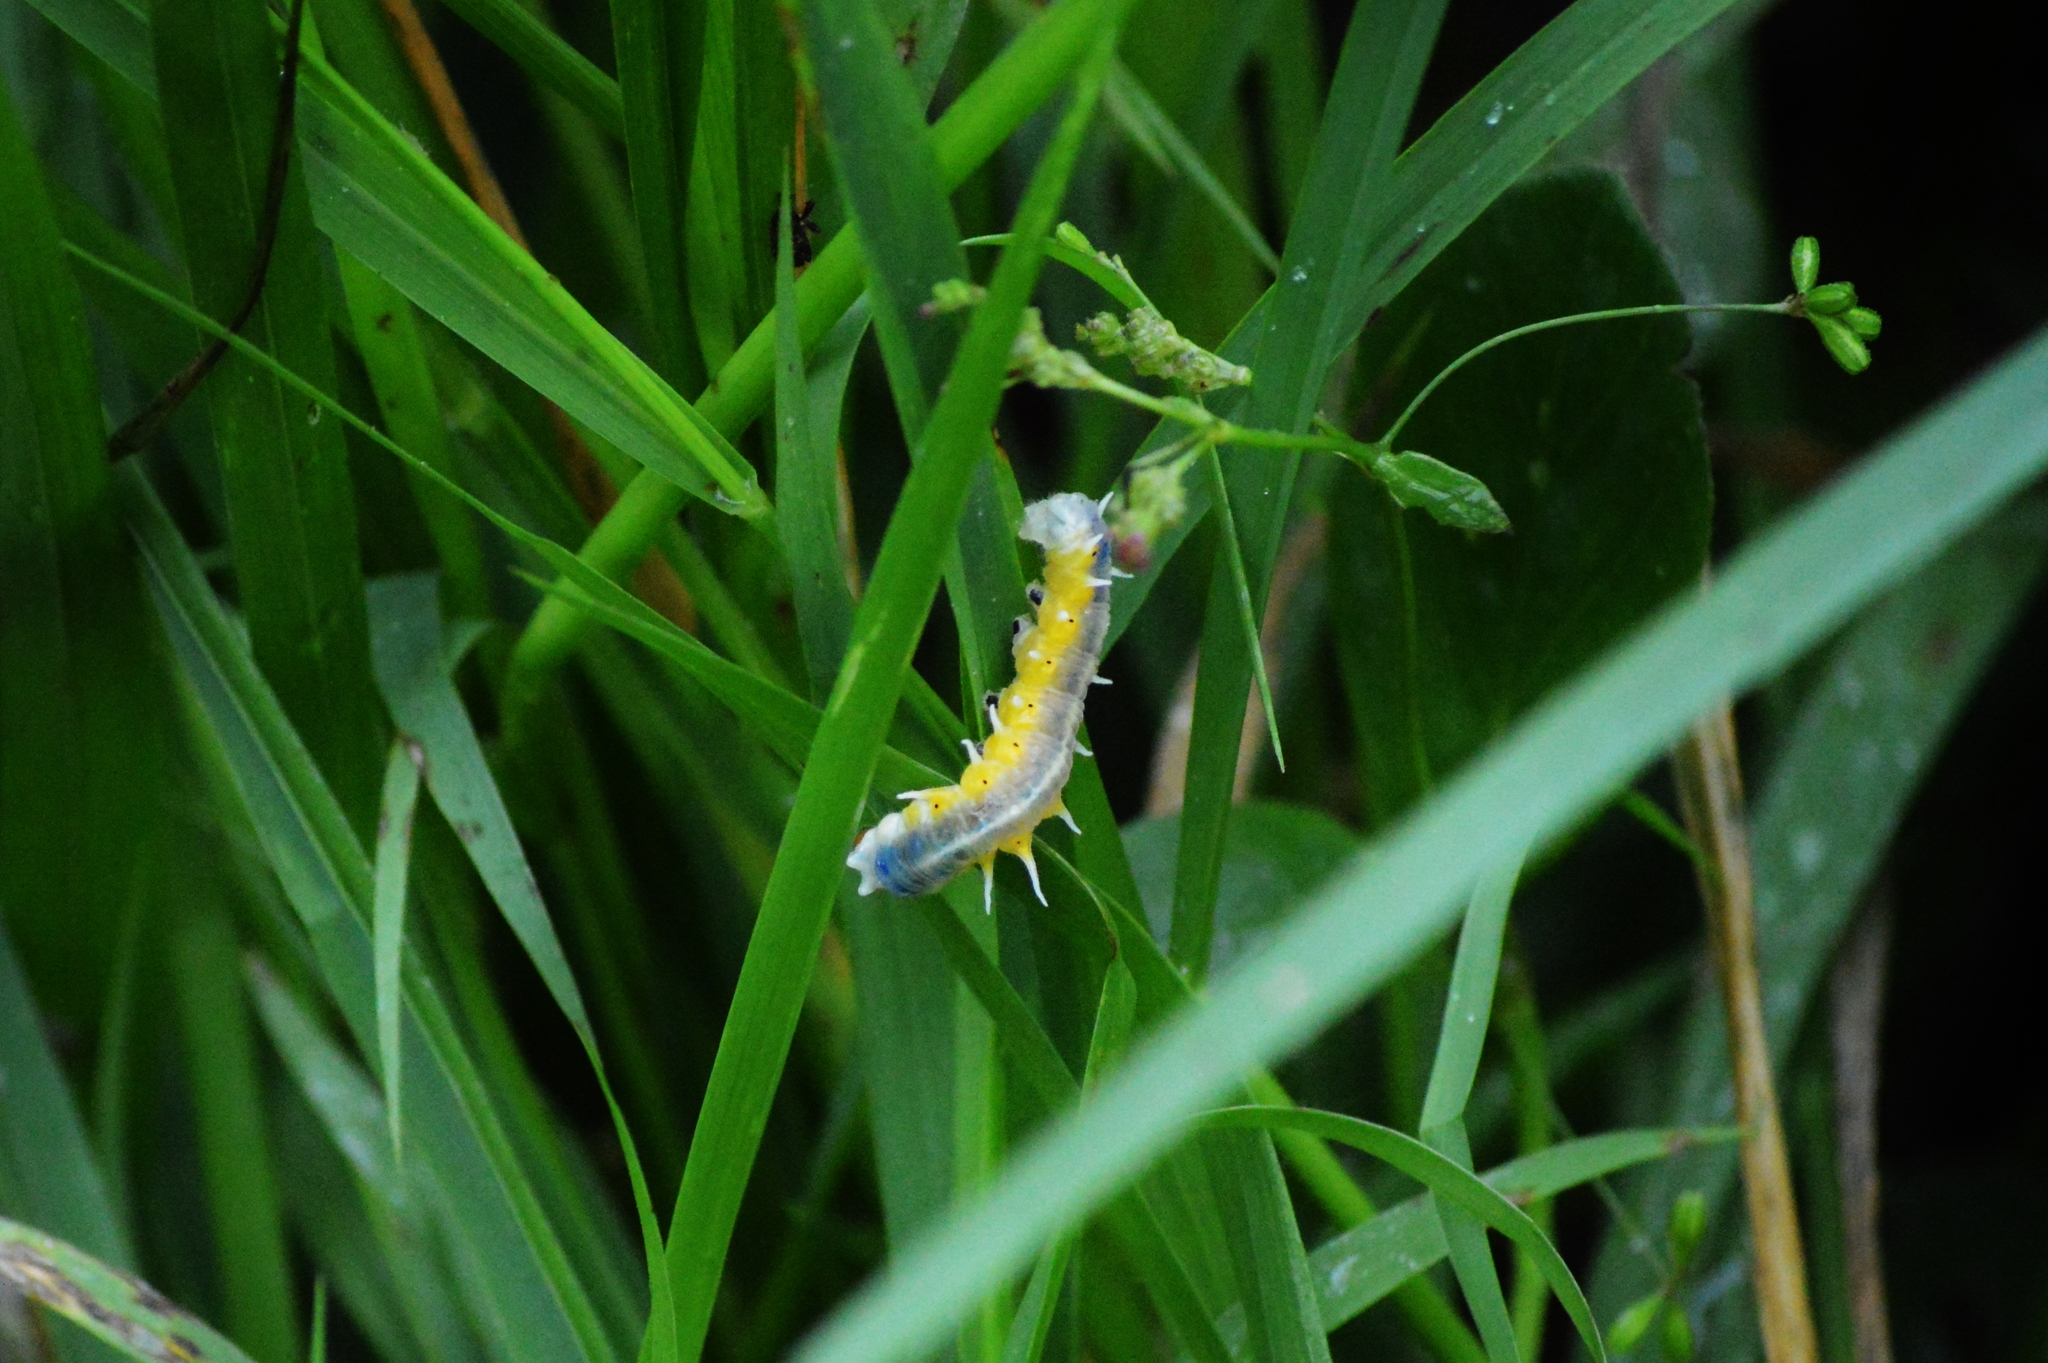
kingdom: Animalia
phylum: Arthropoda
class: Insecta
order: Lepidoptera
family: Nymphalidae
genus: Mechanitis
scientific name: Mechanitis polymnia
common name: Disturbed tigerwing
